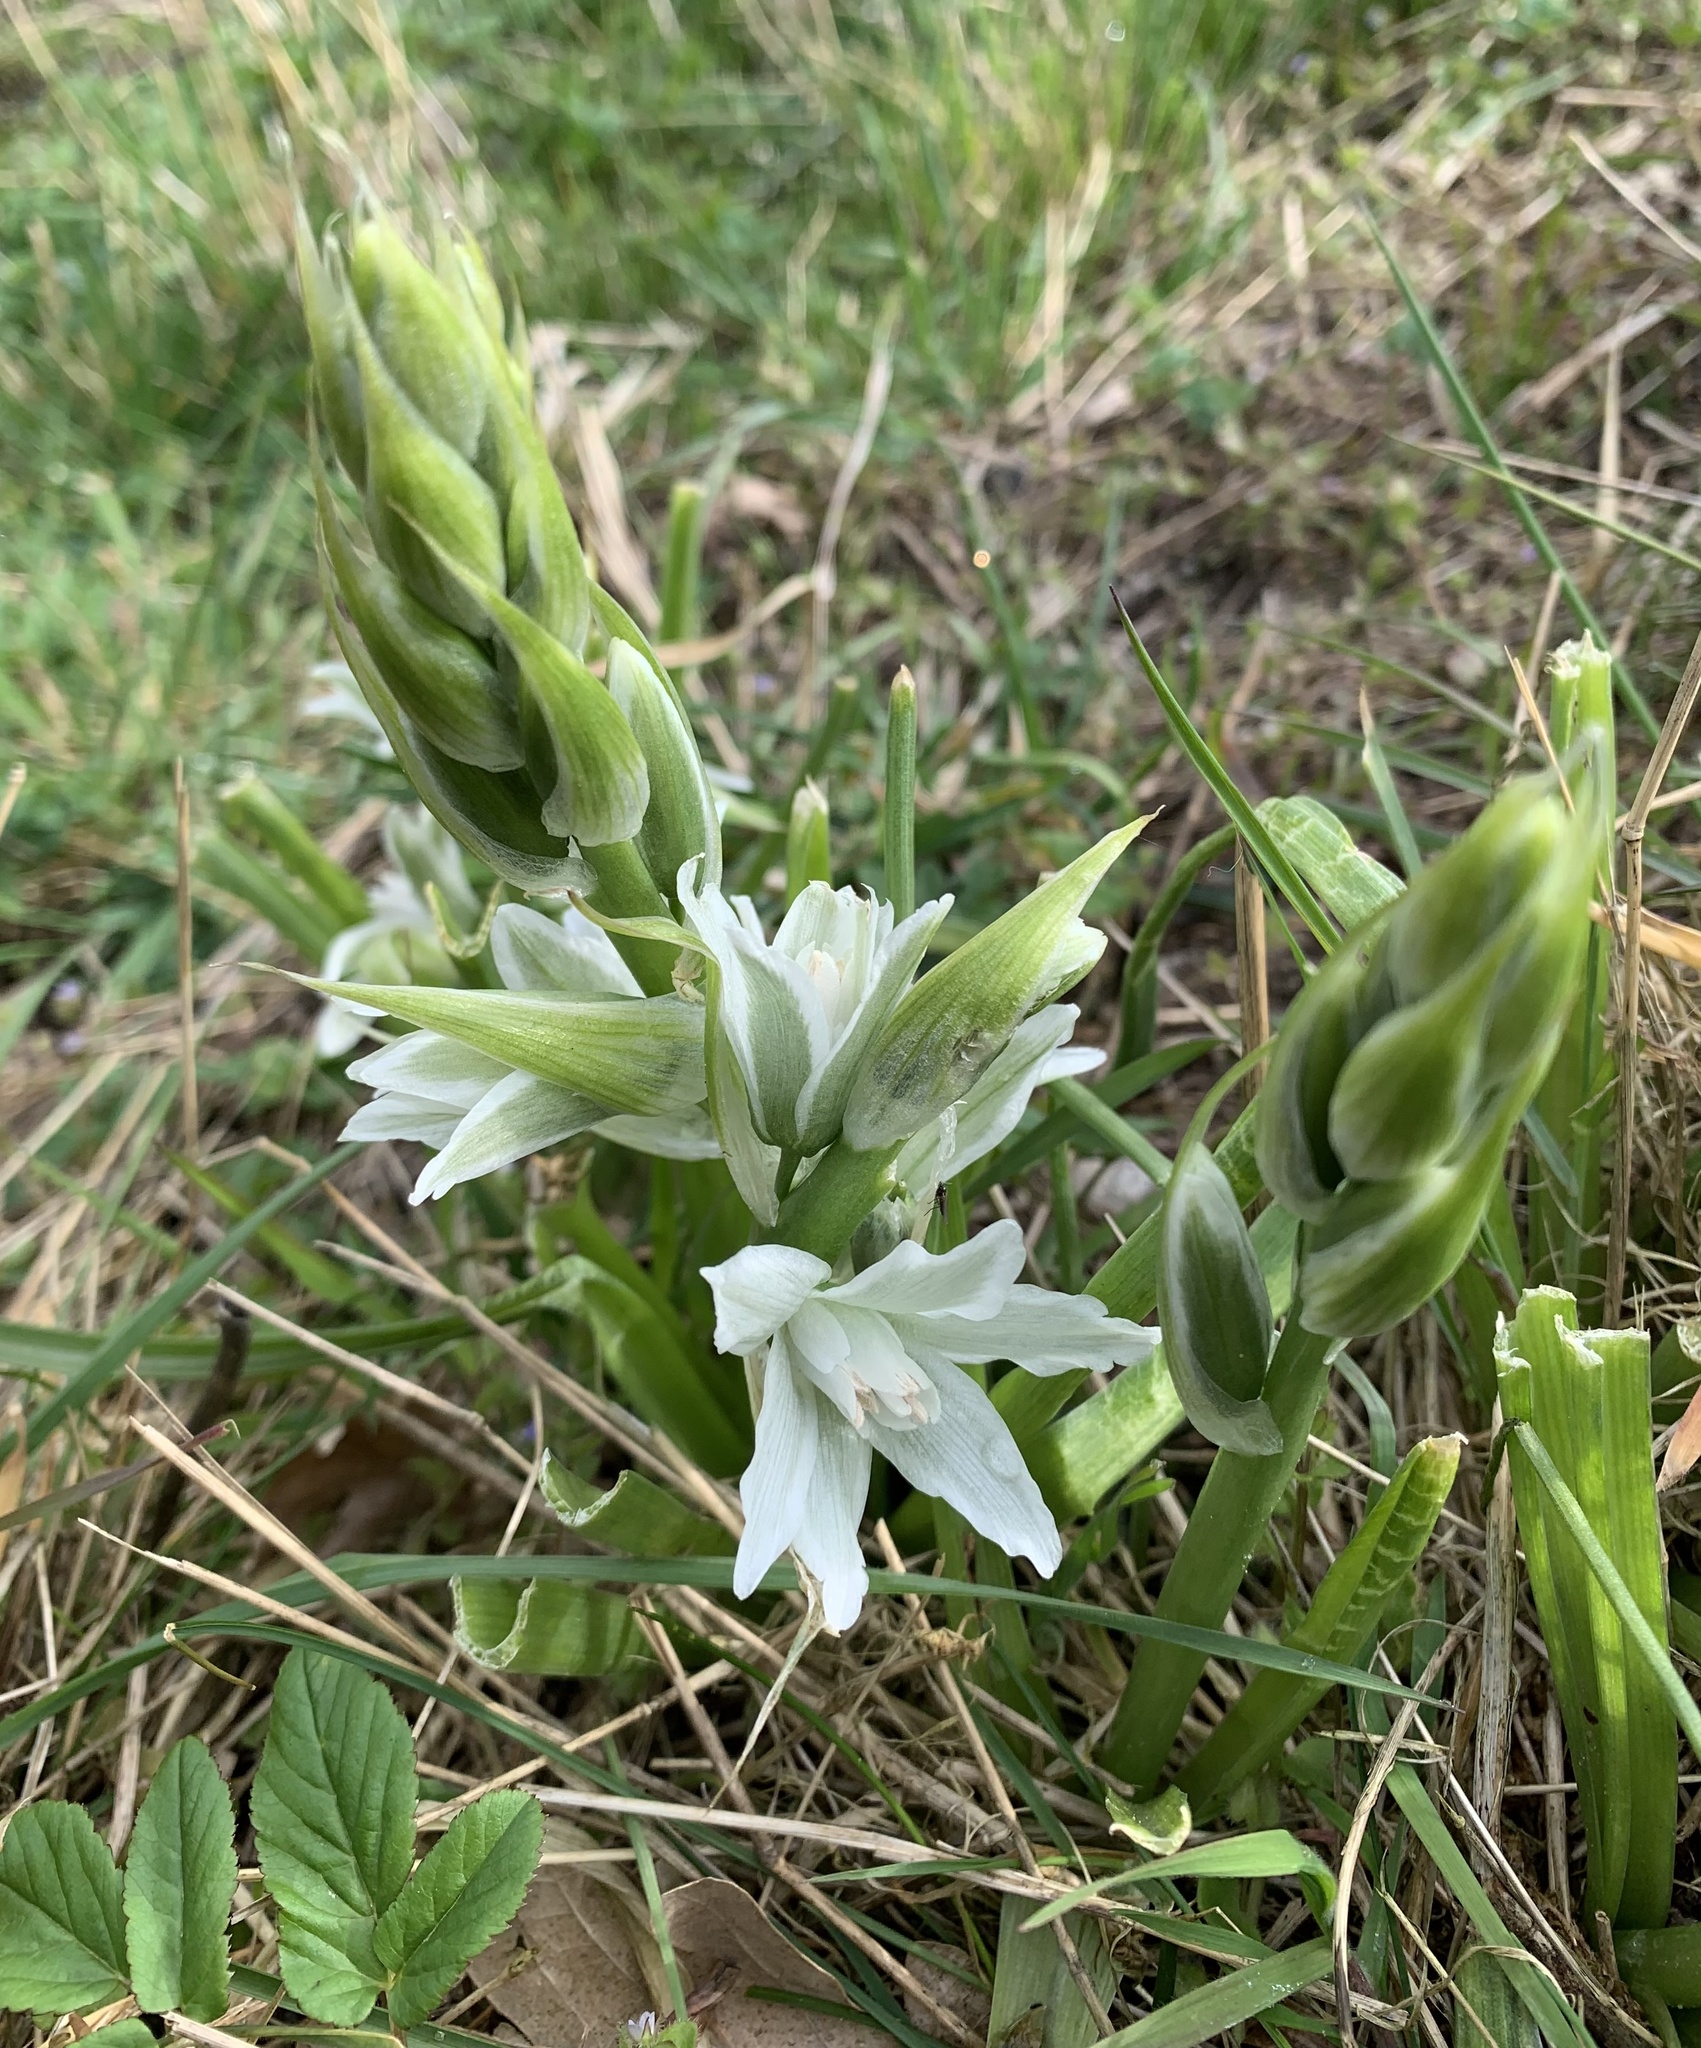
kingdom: Plantae
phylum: Tracheophyta
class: Liliopsida
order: Asparagales
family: Asparagaceae
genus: Ornithogalum
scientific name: Ornithogalum nutans
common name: Drooping star-of-bethlehem
